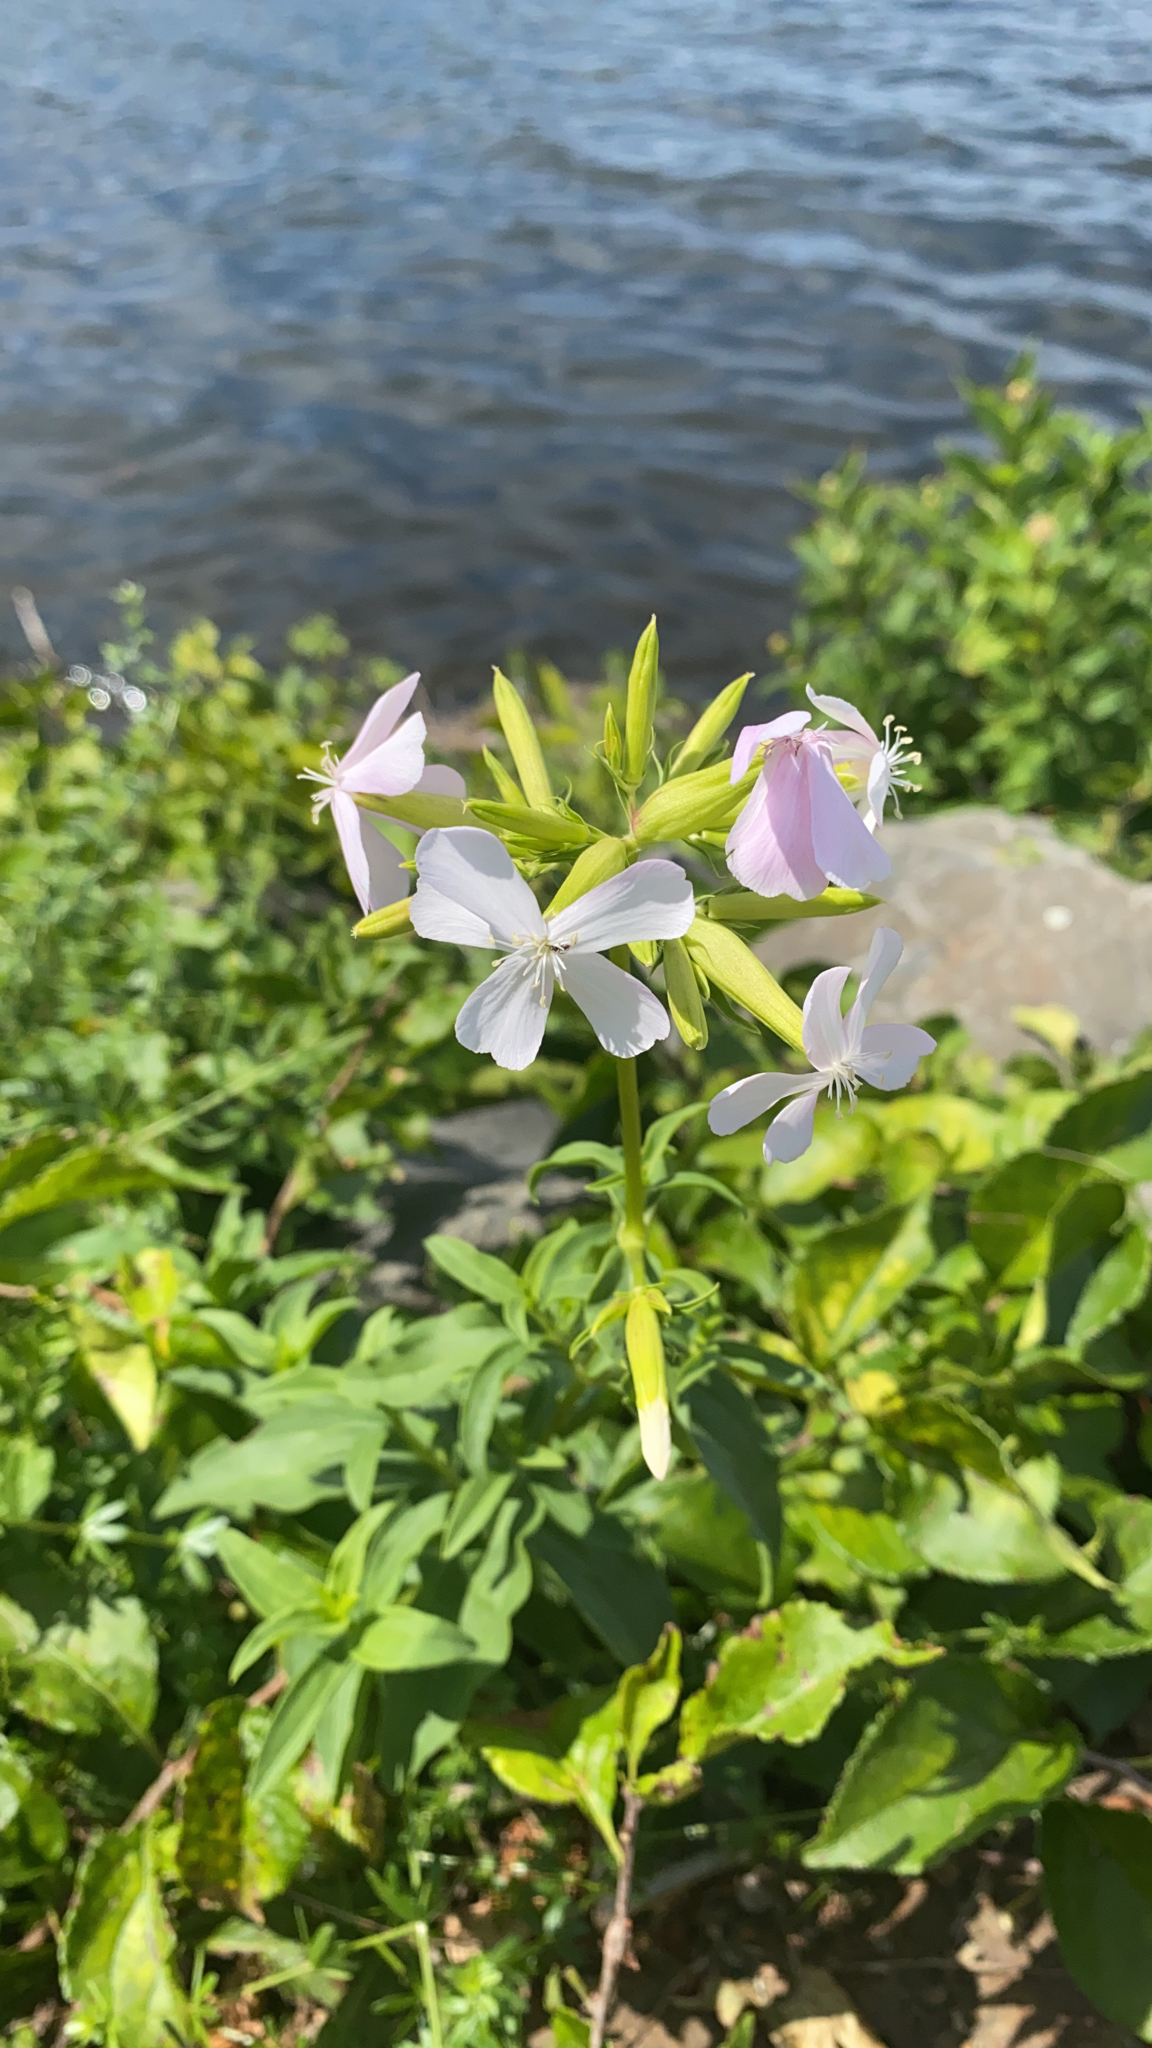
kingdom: Plantae
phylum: Tracheophyta
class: Magnoliopsida
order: Caryophyllales
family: Caryophyllaceae
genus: Saponaria
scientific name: Saponaria officinalis
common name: Soapwort
